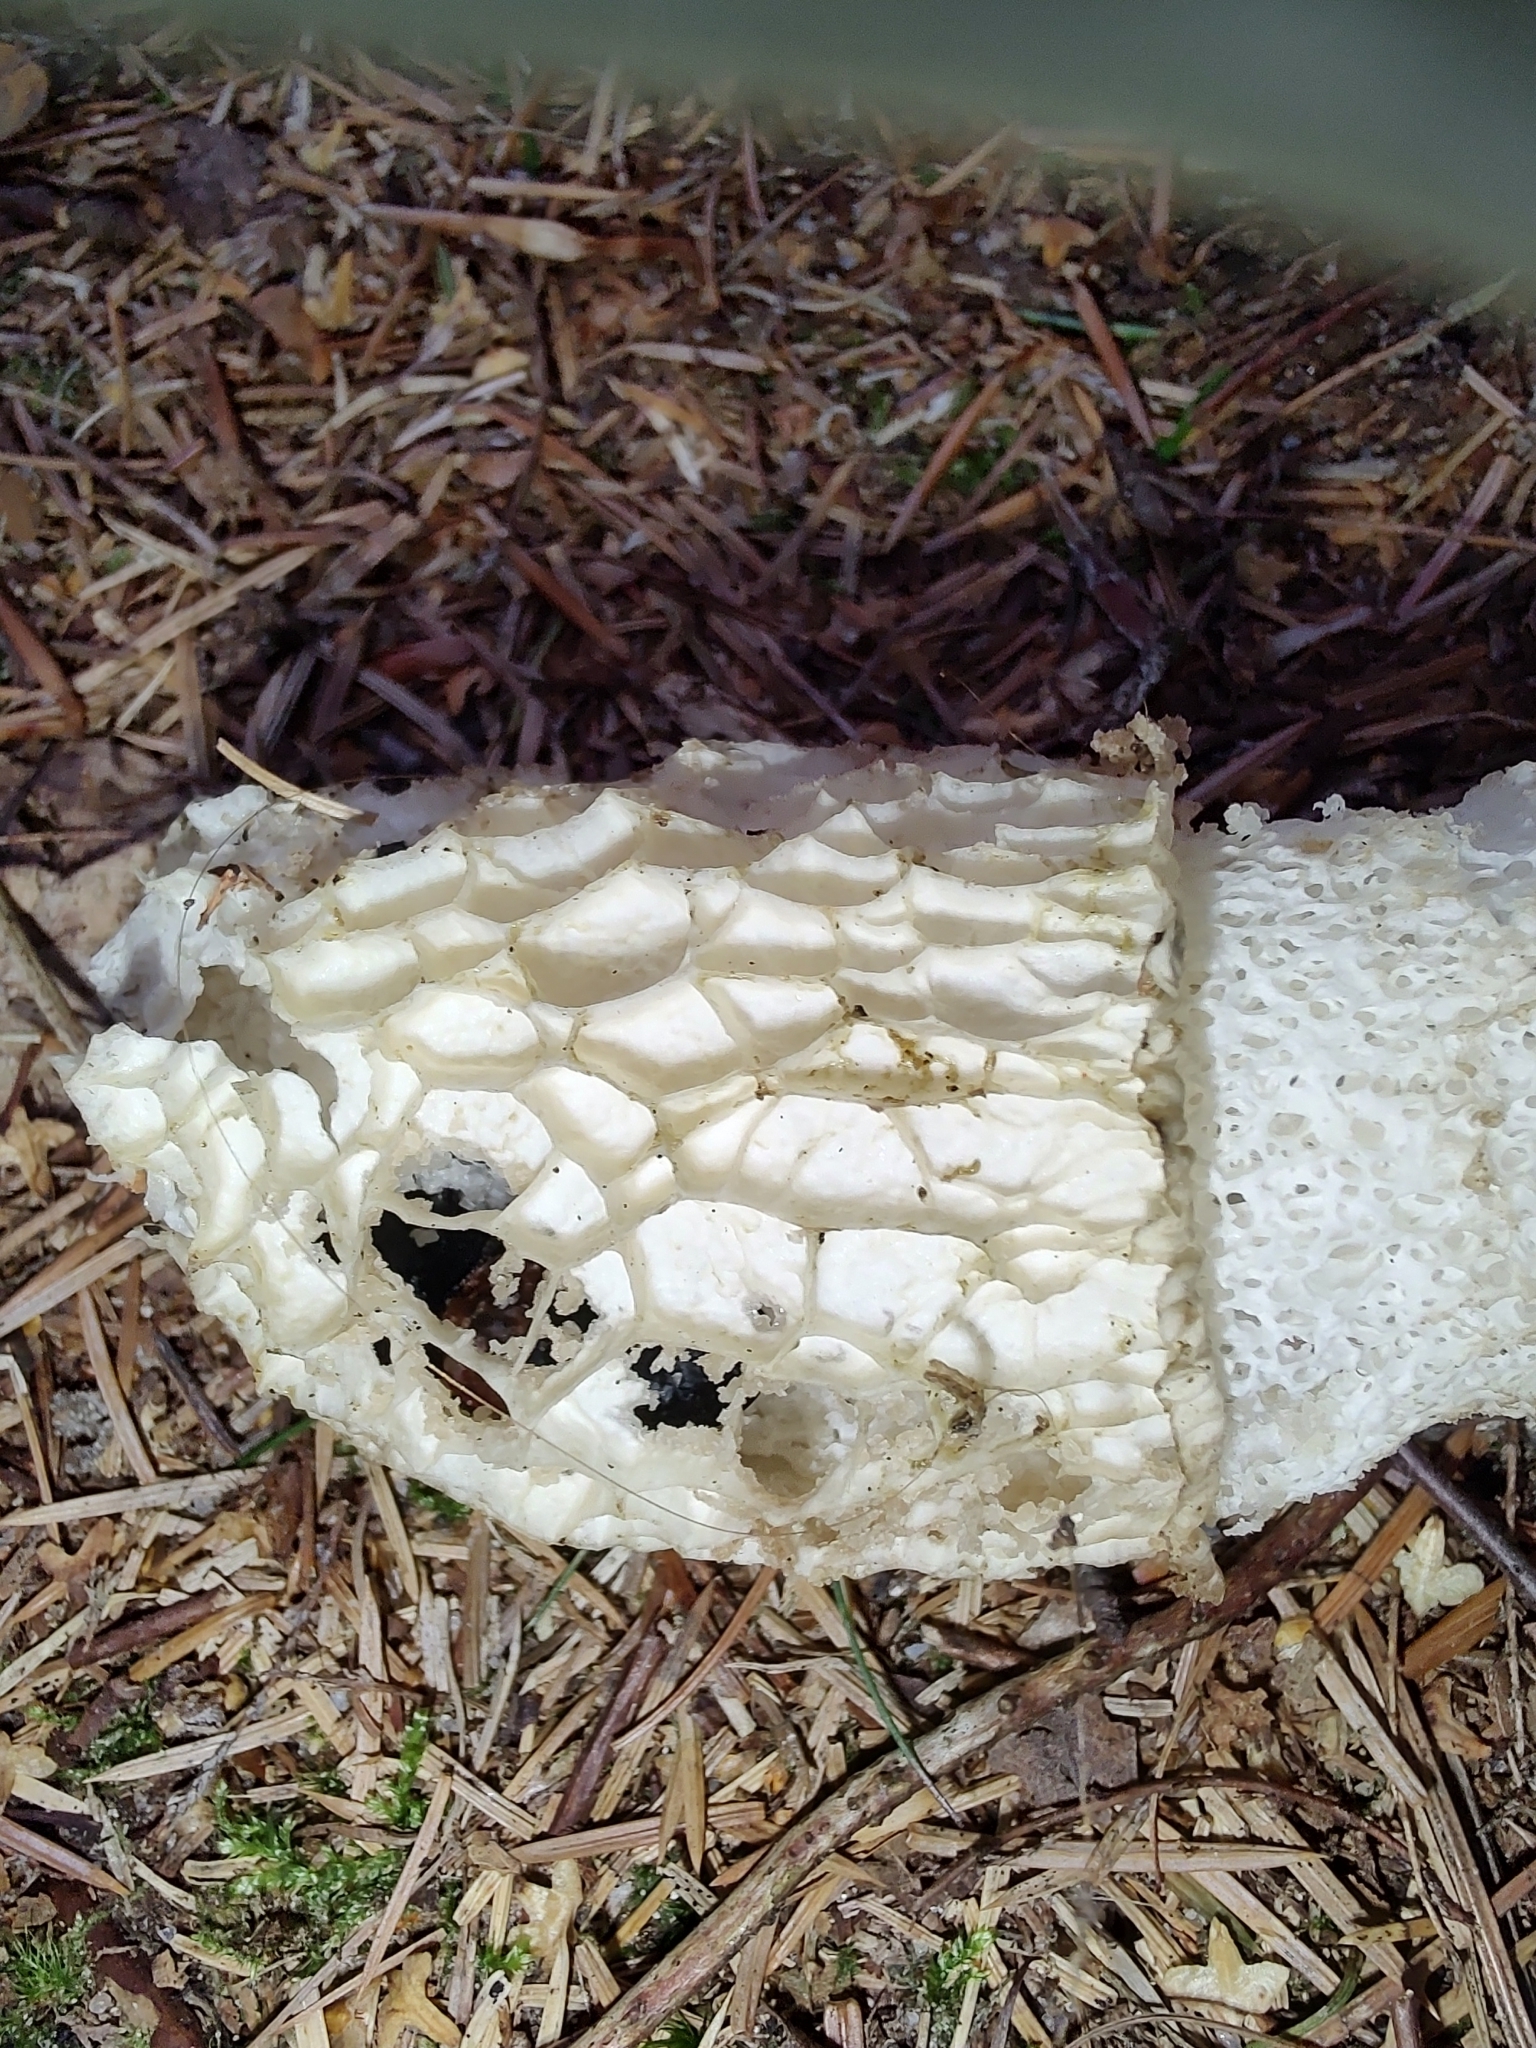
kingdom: Fungi
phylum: Basidiomycota
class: Agaricomycetes
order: Phallales
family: Phallaceae
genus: Phallus
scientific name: Phallus impudicus
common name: Common stinkhorn
